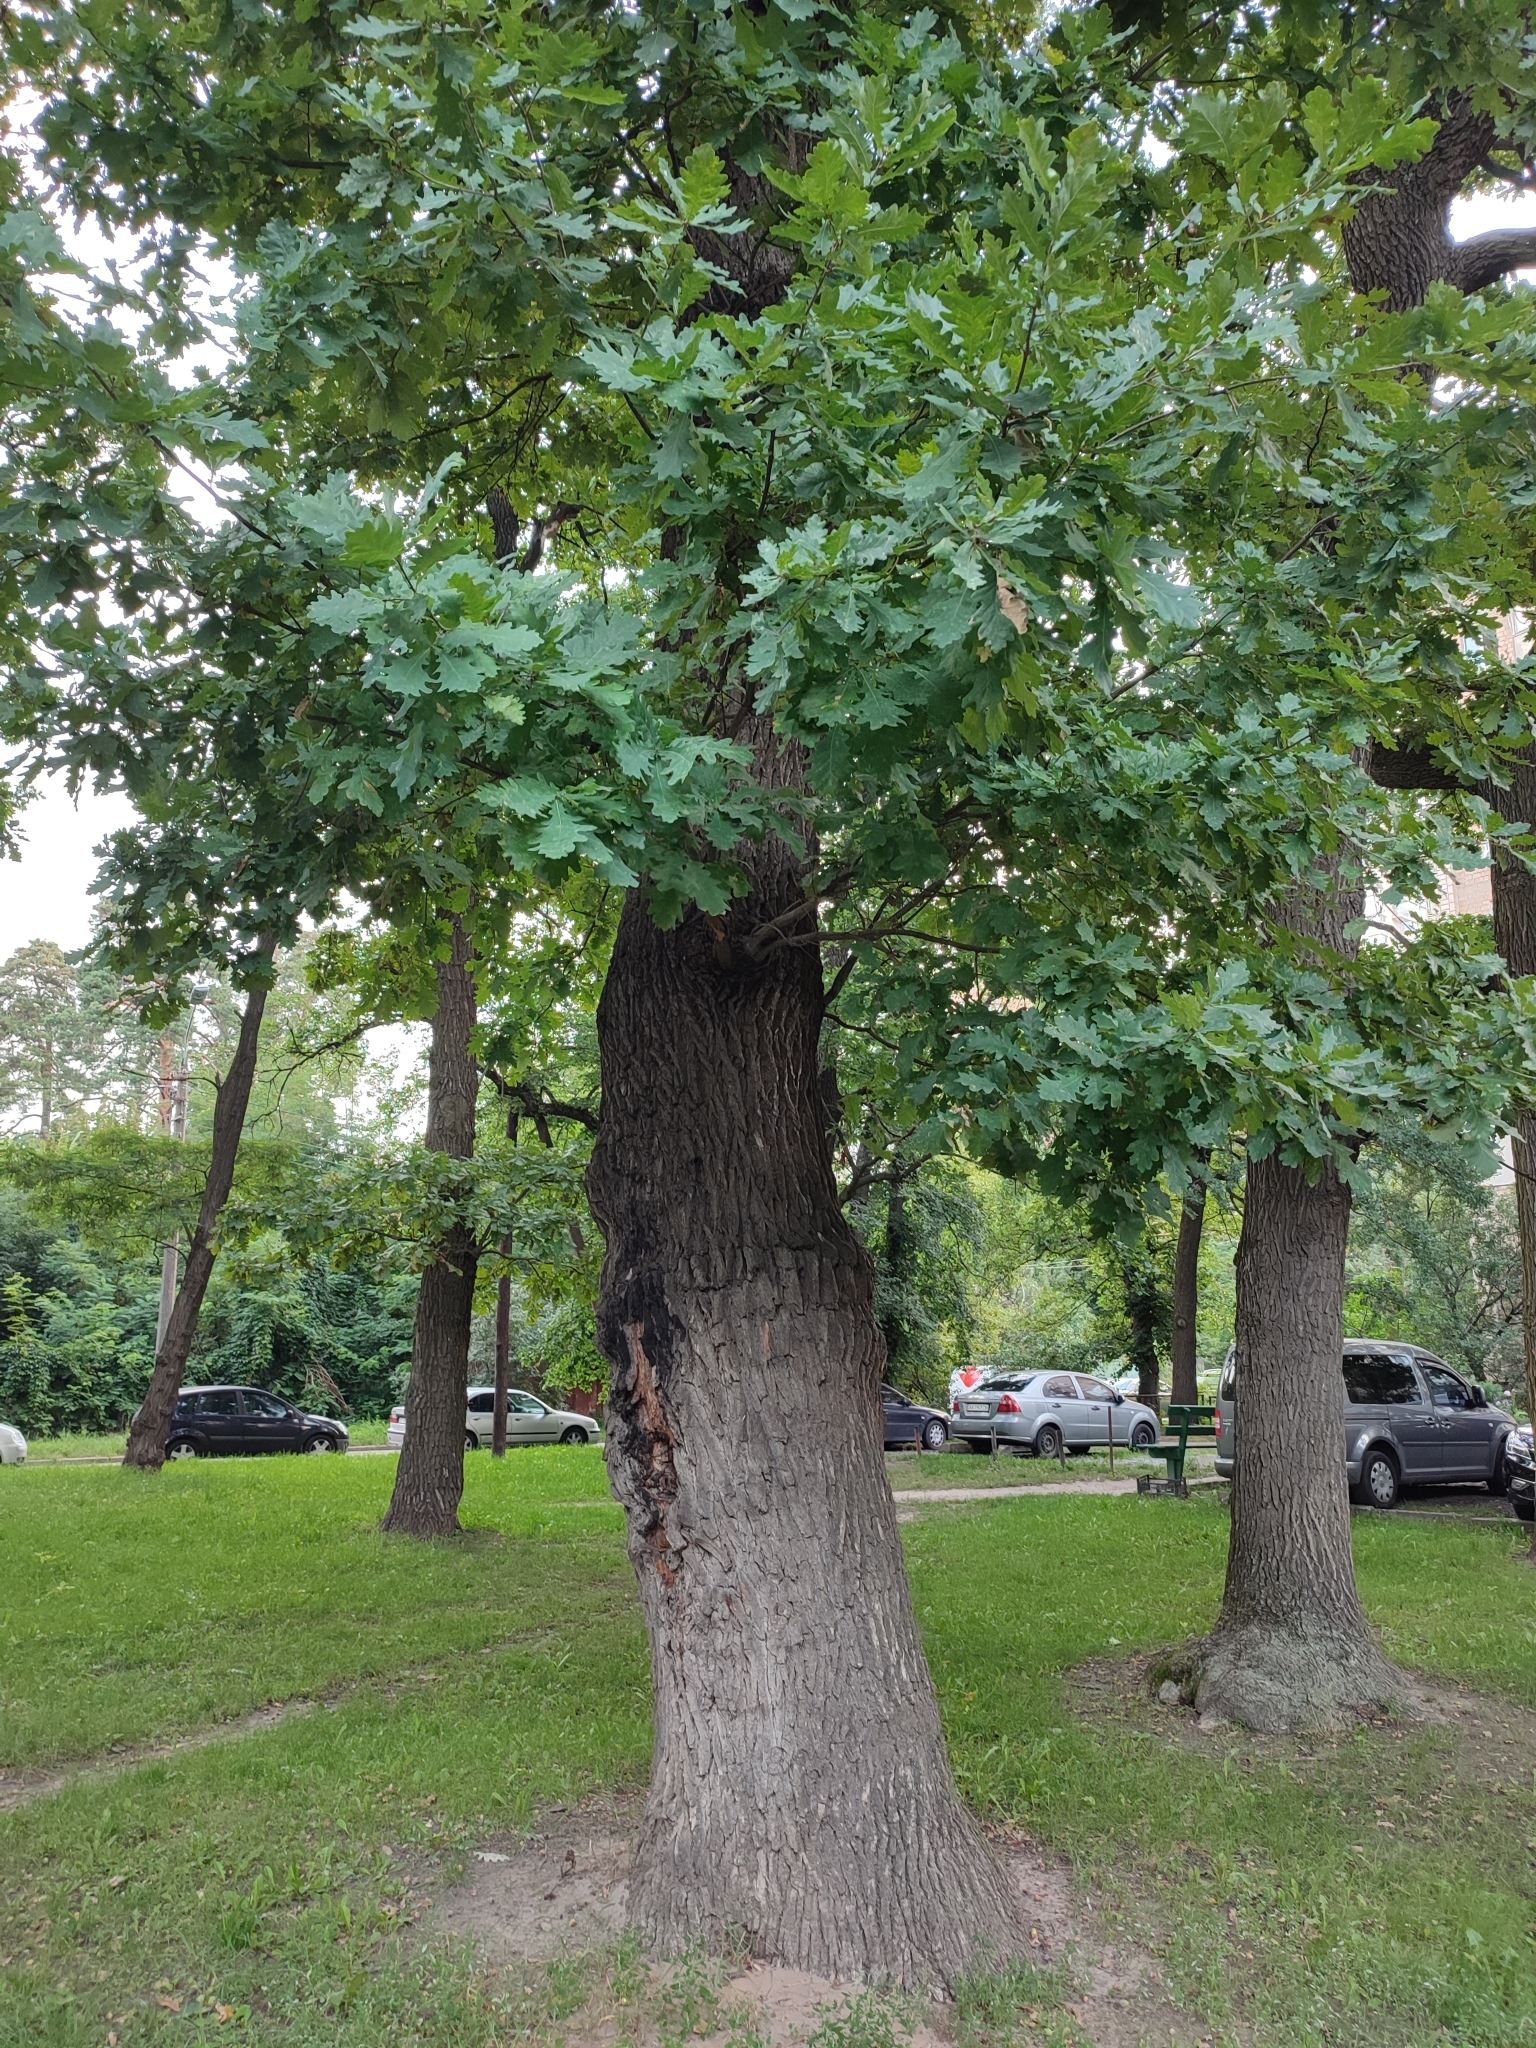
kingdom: Plantae
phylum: Tracheophyta
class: Magnoliopsida
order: Fagales
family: Fagaceae
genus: Quercus
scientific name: Quercus robur
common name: Pedunculate oak
